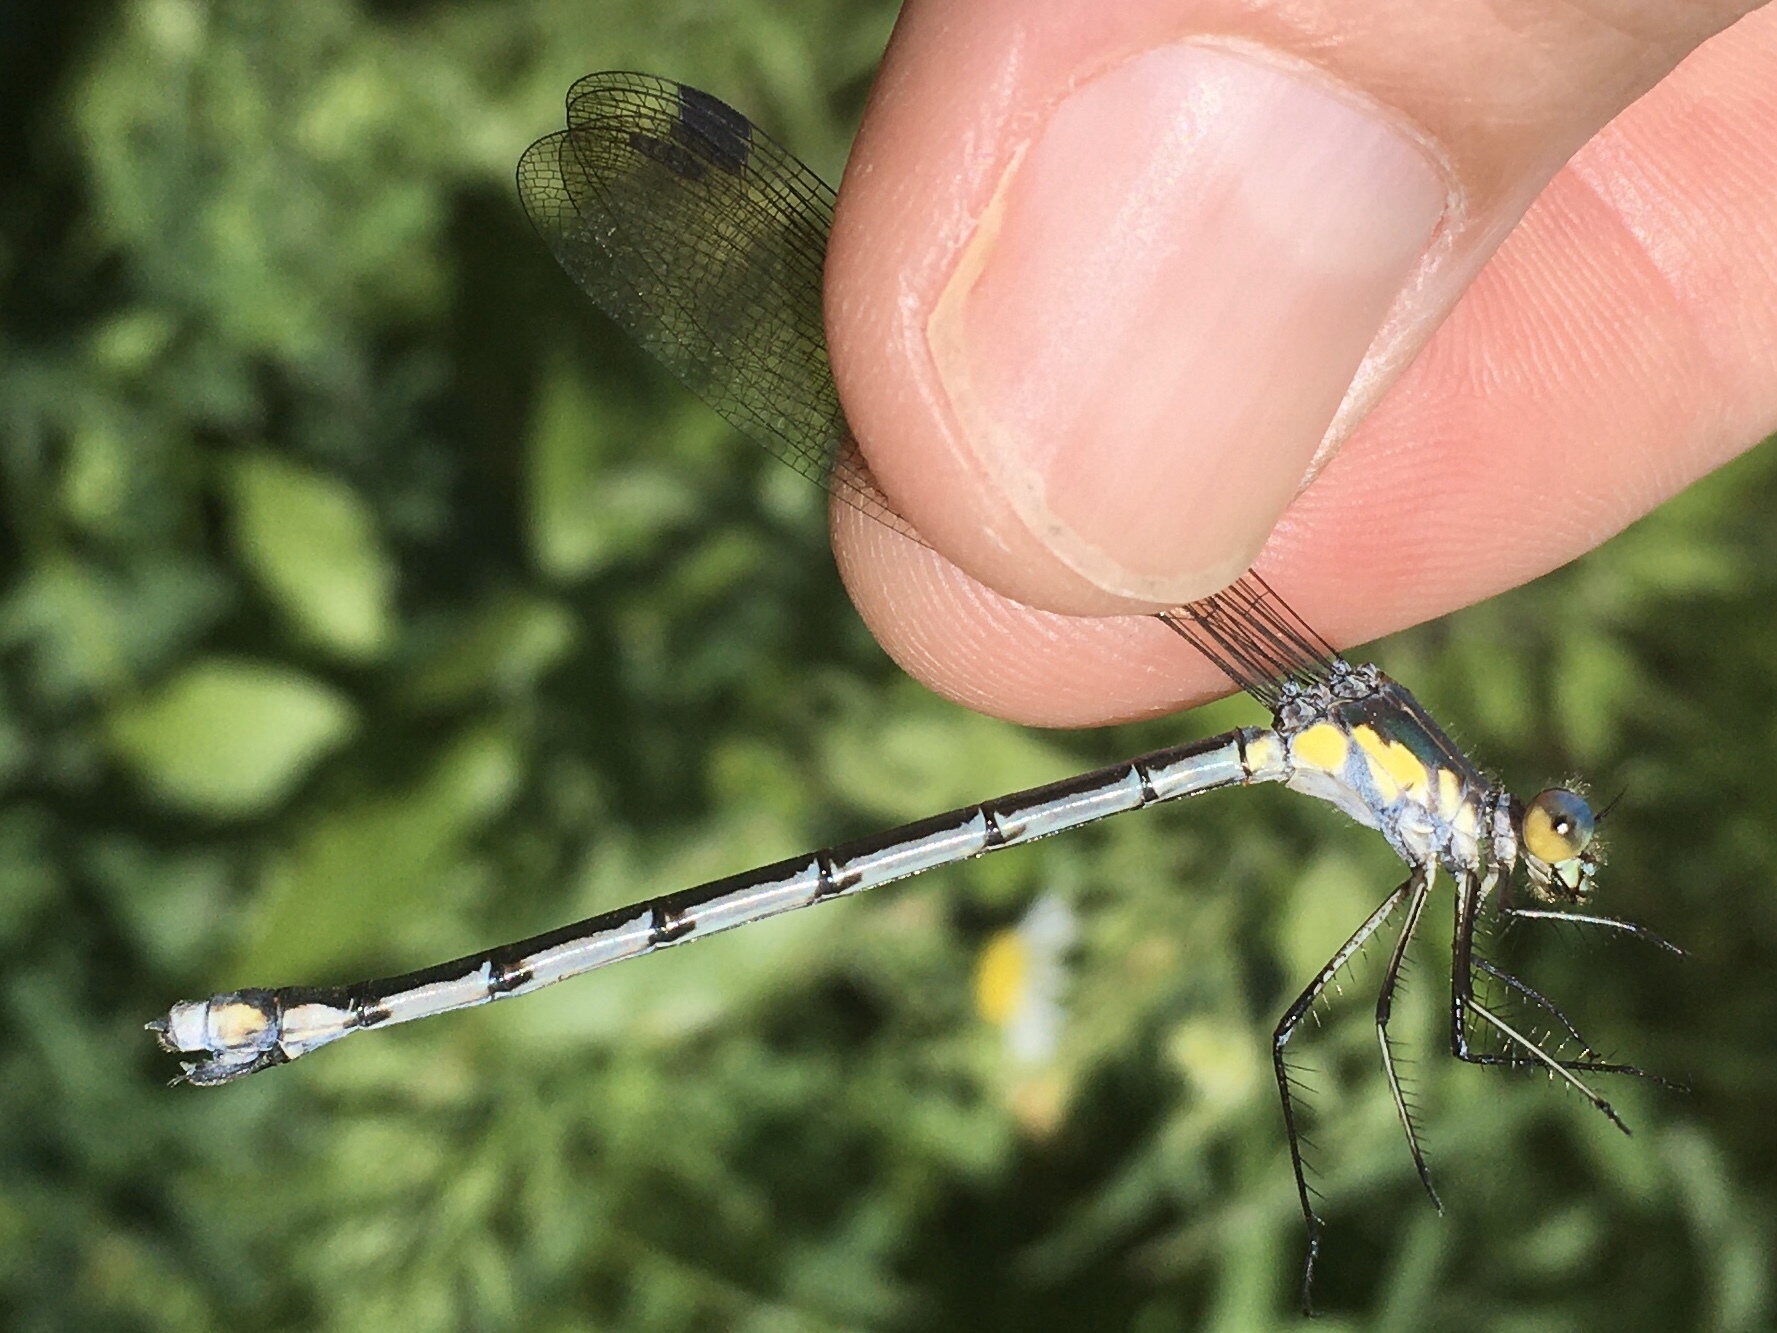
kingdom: Animalia
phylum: Arthropoda
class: Insecta
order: Odonata
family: Lestidae
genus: Lestes
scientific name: Lestes eurinus
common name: Amber-winged spreadwing
